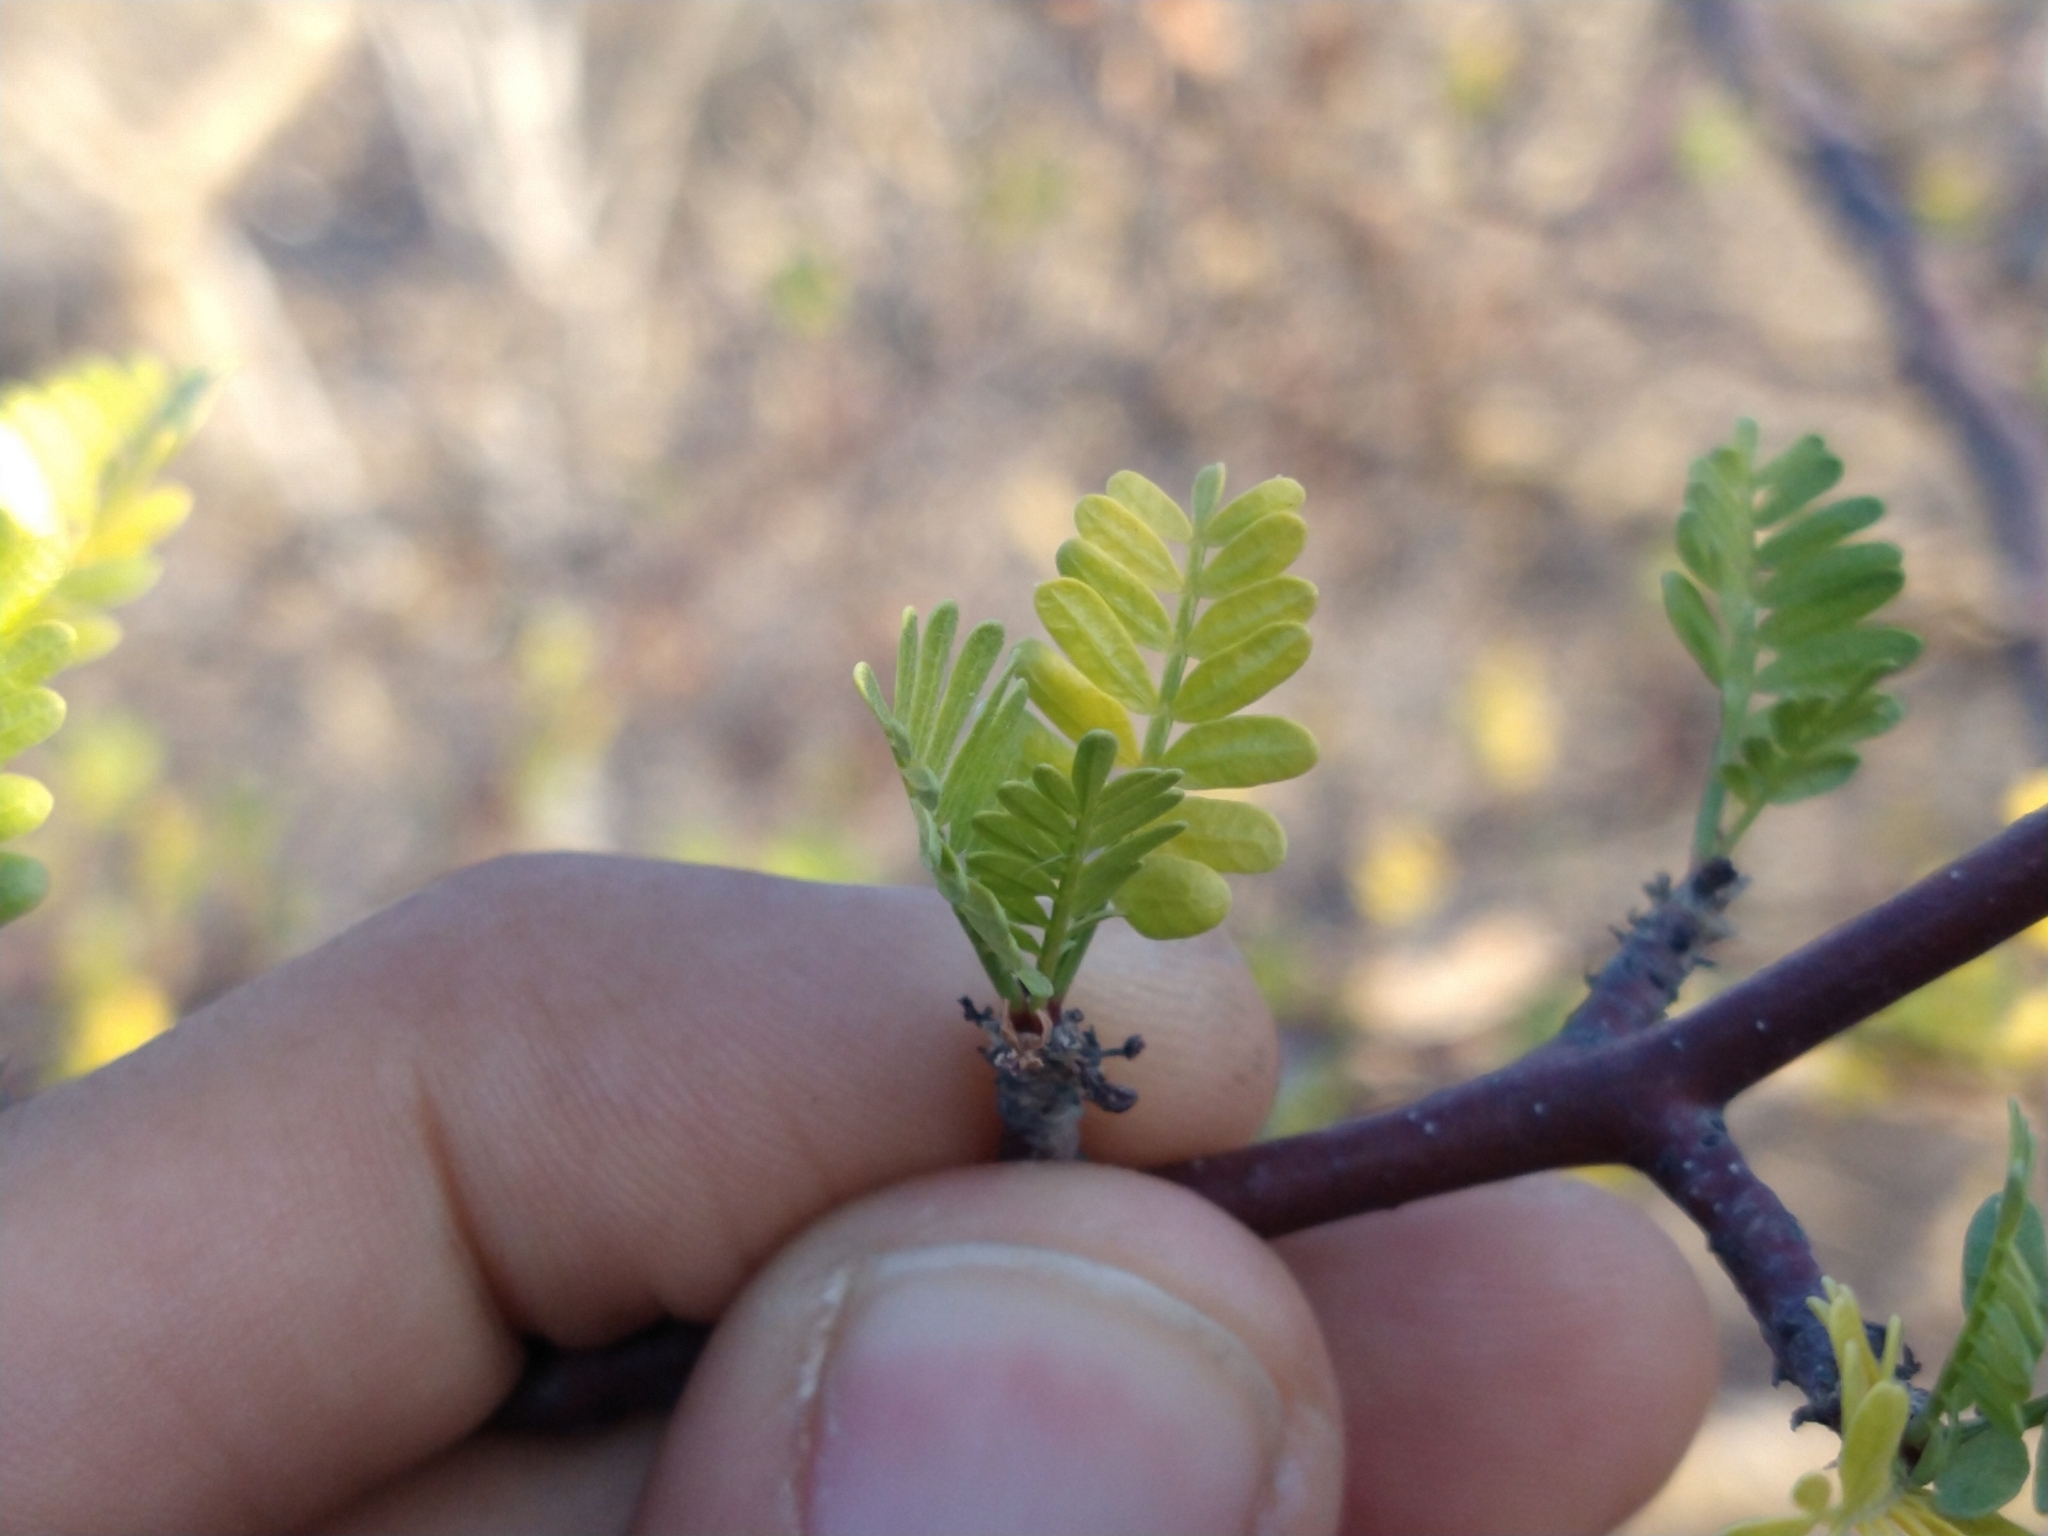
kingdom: Plantae
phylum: Tracheophyta
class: Magnoliopsida
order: Sapindales
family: Burseraceae
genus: Bursera
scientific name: Bursera microphylla
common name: Elephant tree
